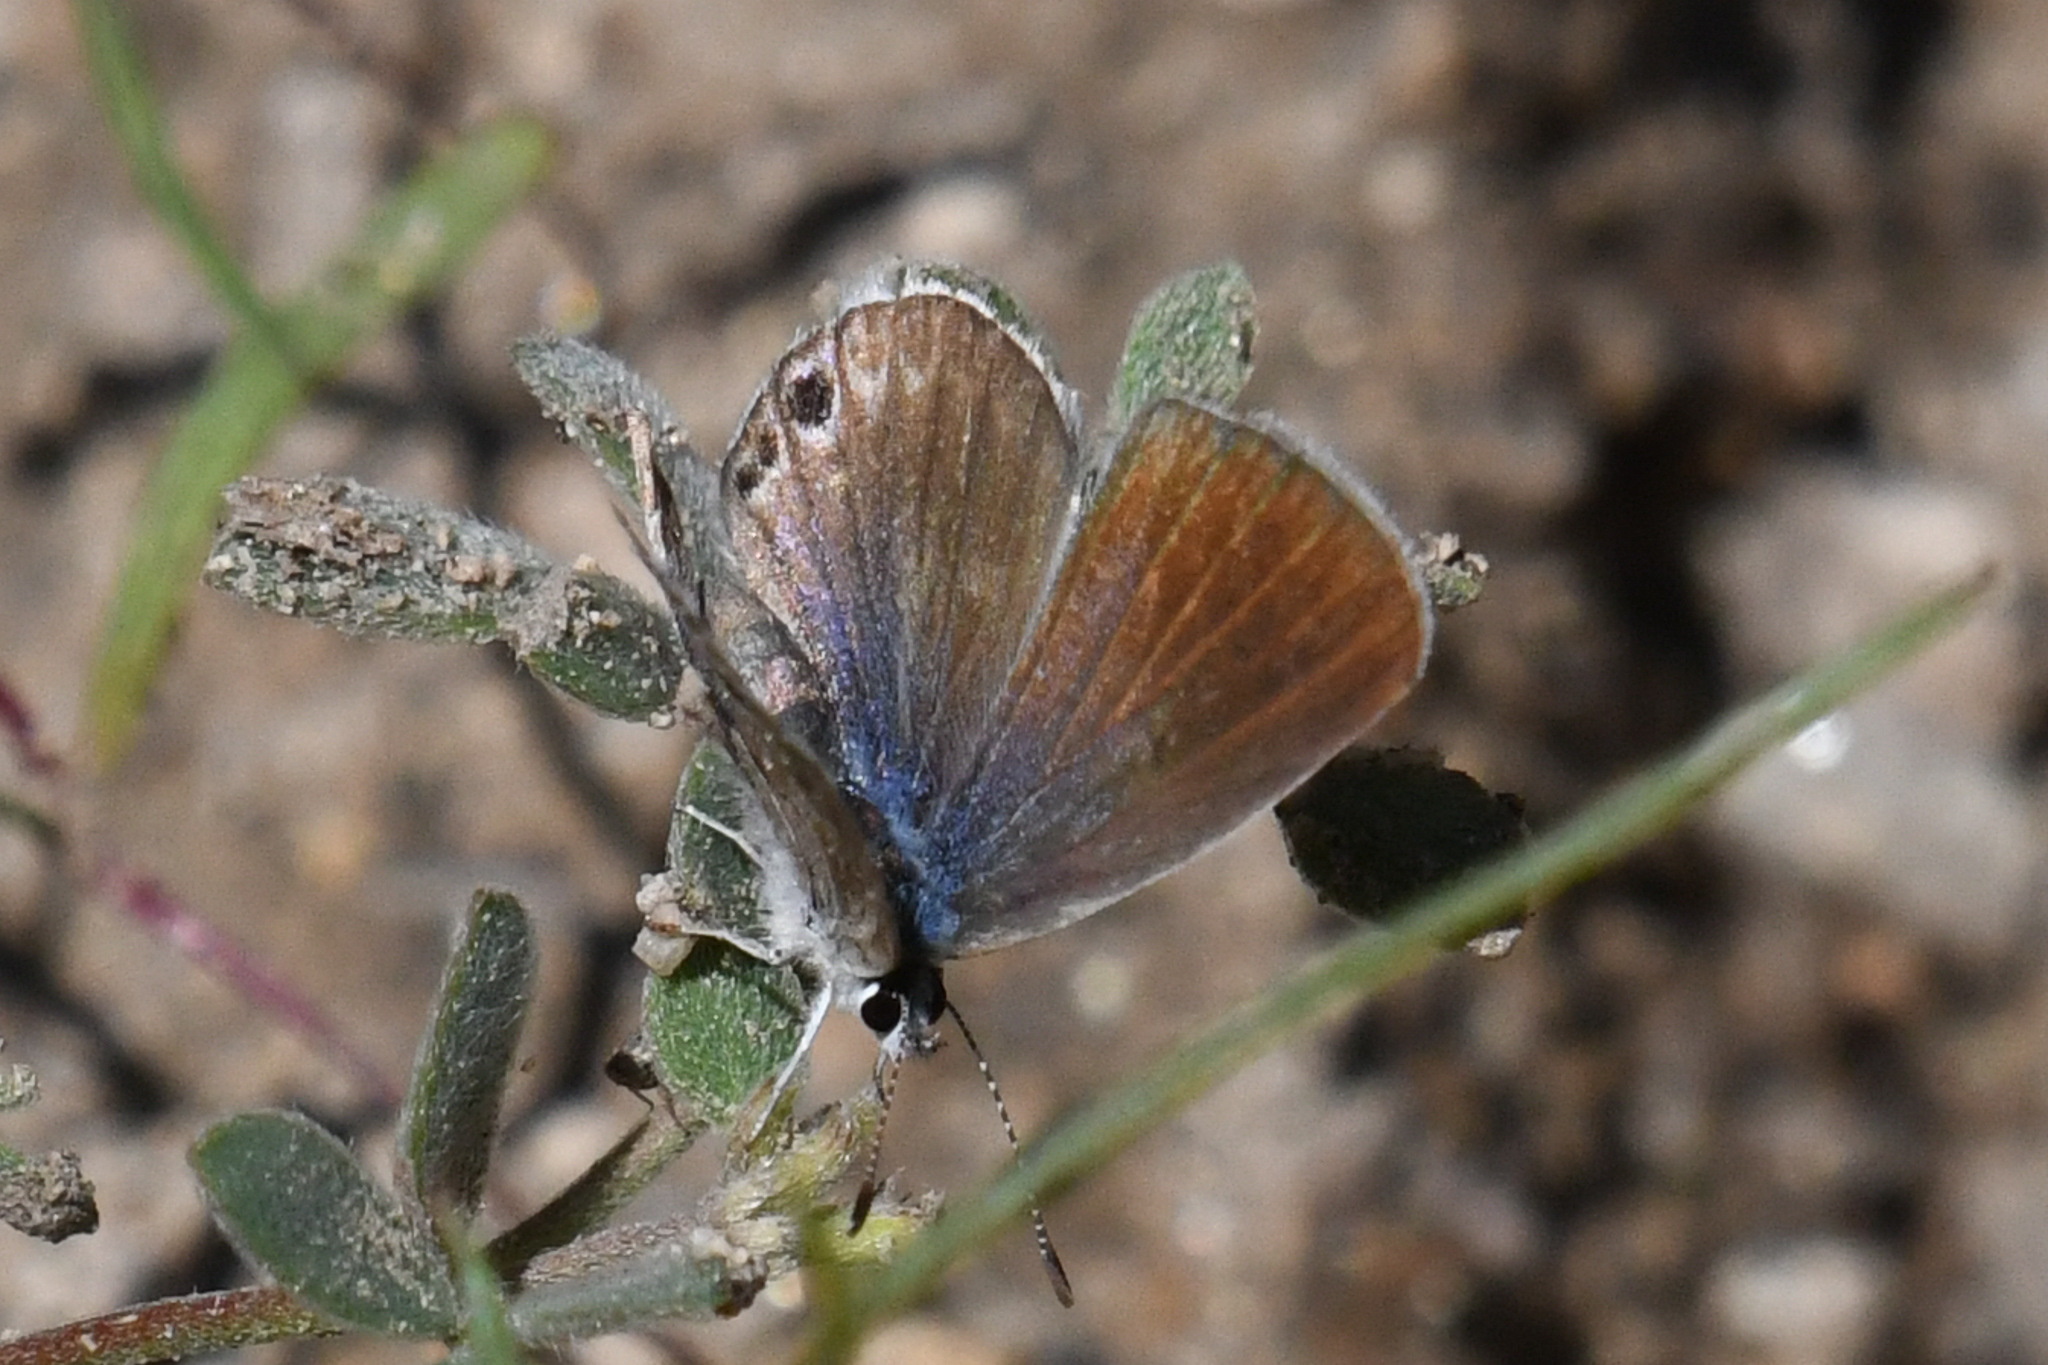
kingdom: Animalia
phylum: Arthropoda
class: Insecta
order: Lepidoptera
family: Lycaenidae
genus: Echinargus
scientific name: Echinargus isola
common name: Reakirt's blue
